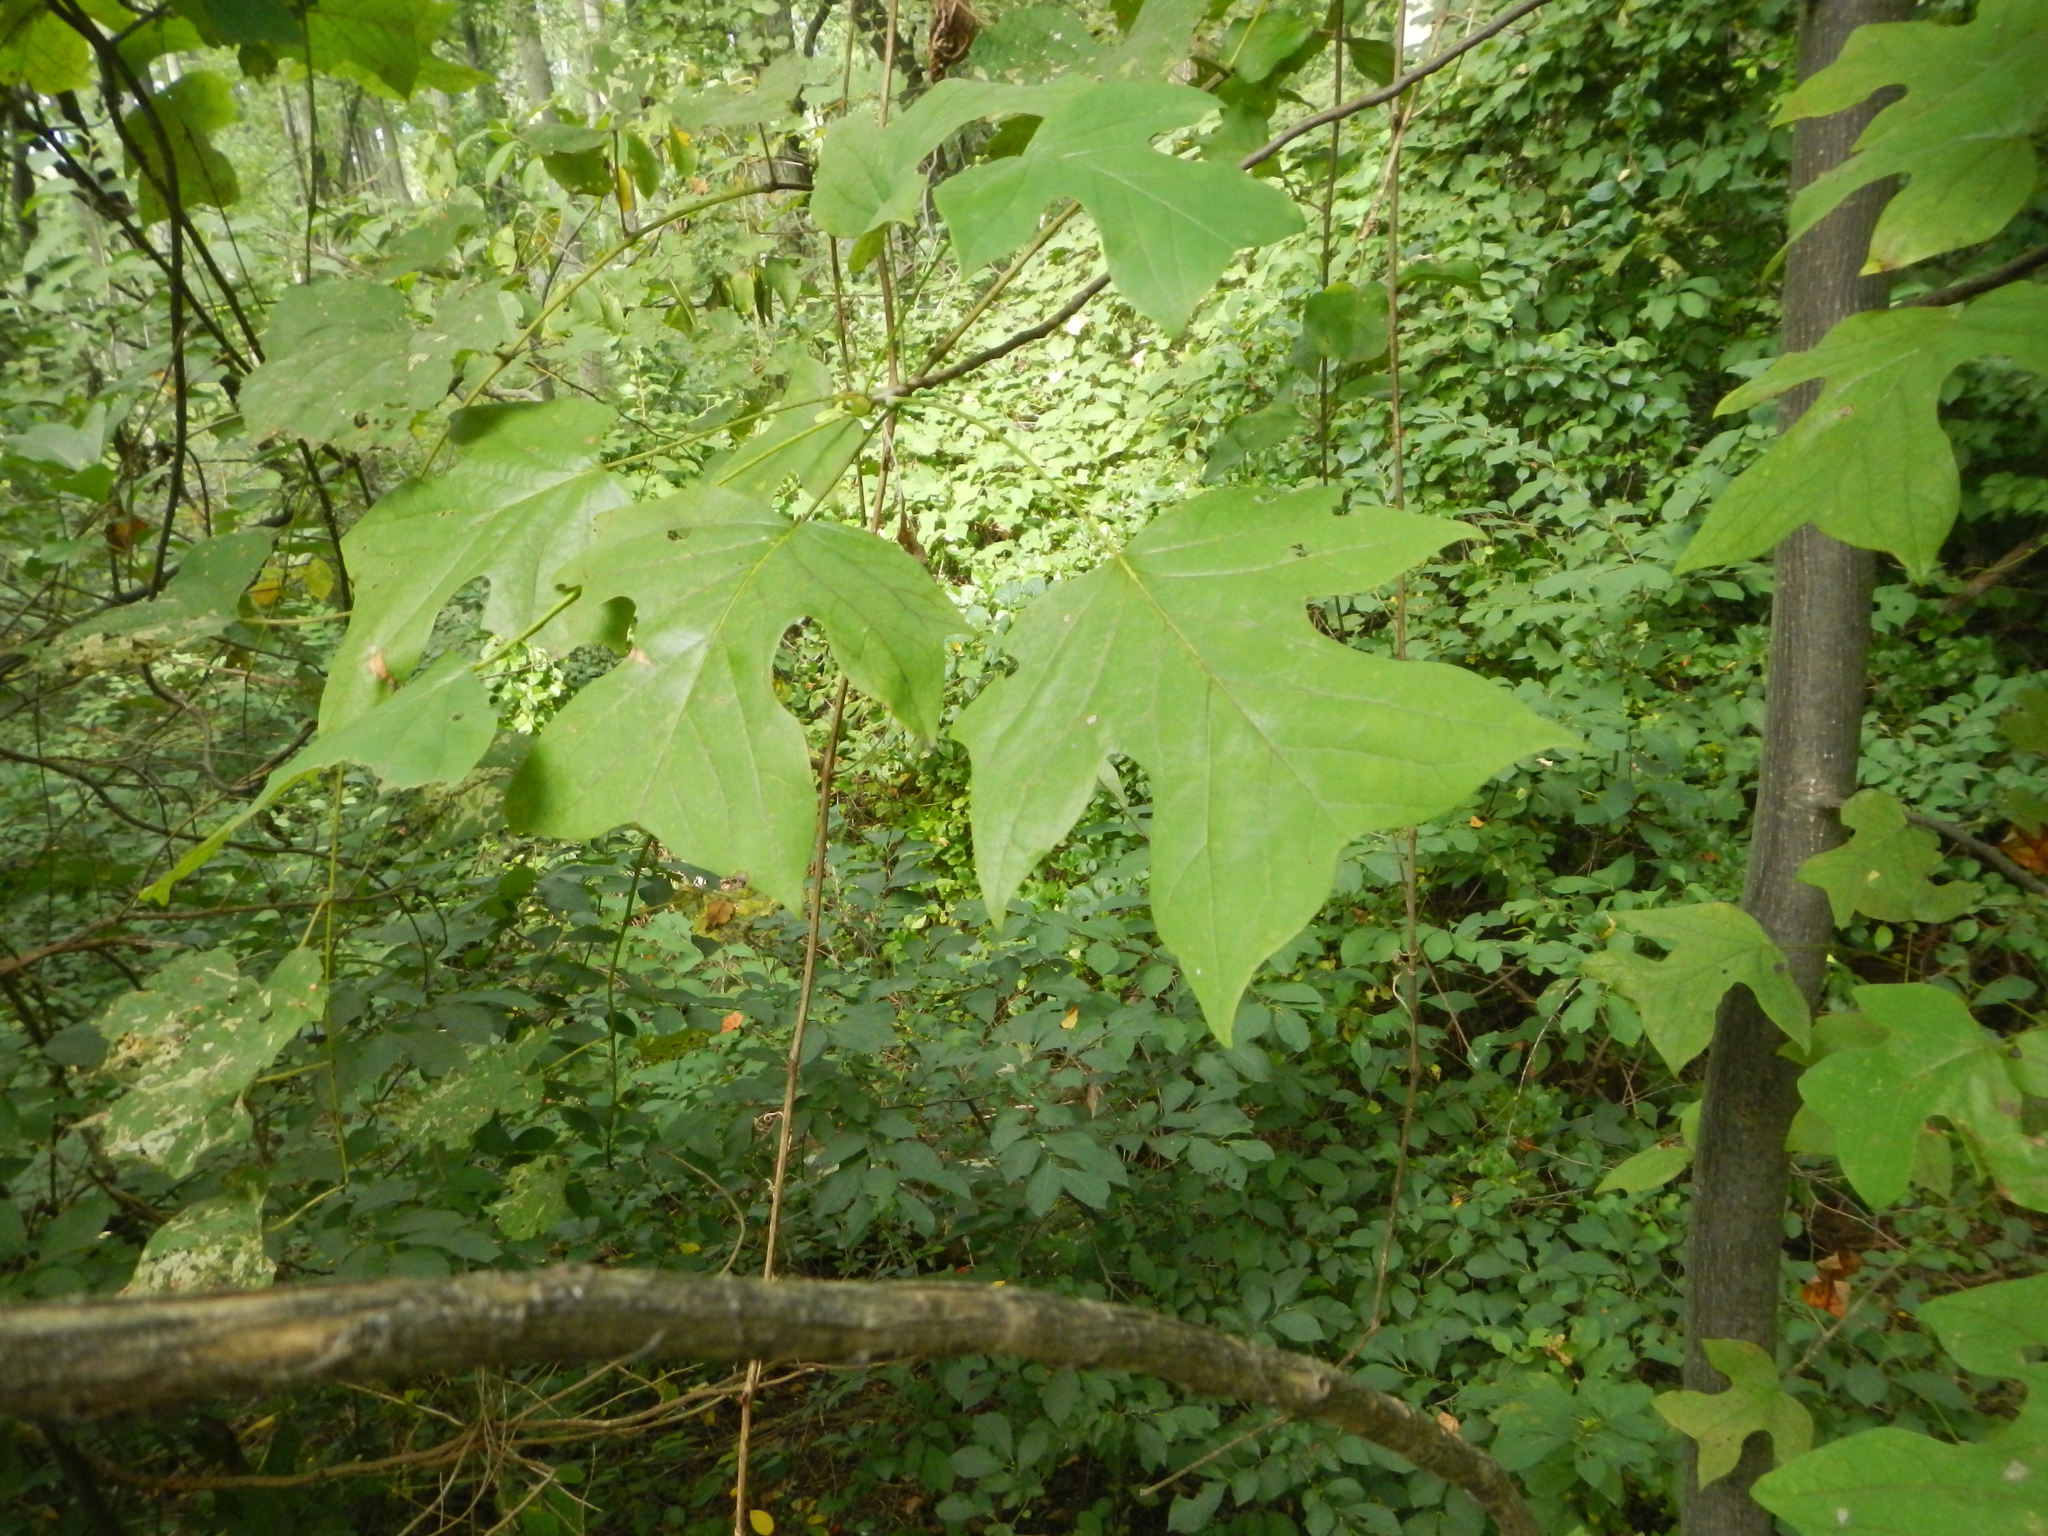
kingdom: Plantae
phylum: Tracheophyta
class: Magnoliopsida
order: Magnoliales
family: Magnoliaceae
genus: Liriodendron
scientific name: Liriodendron tulipifera
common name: Tulip tree
